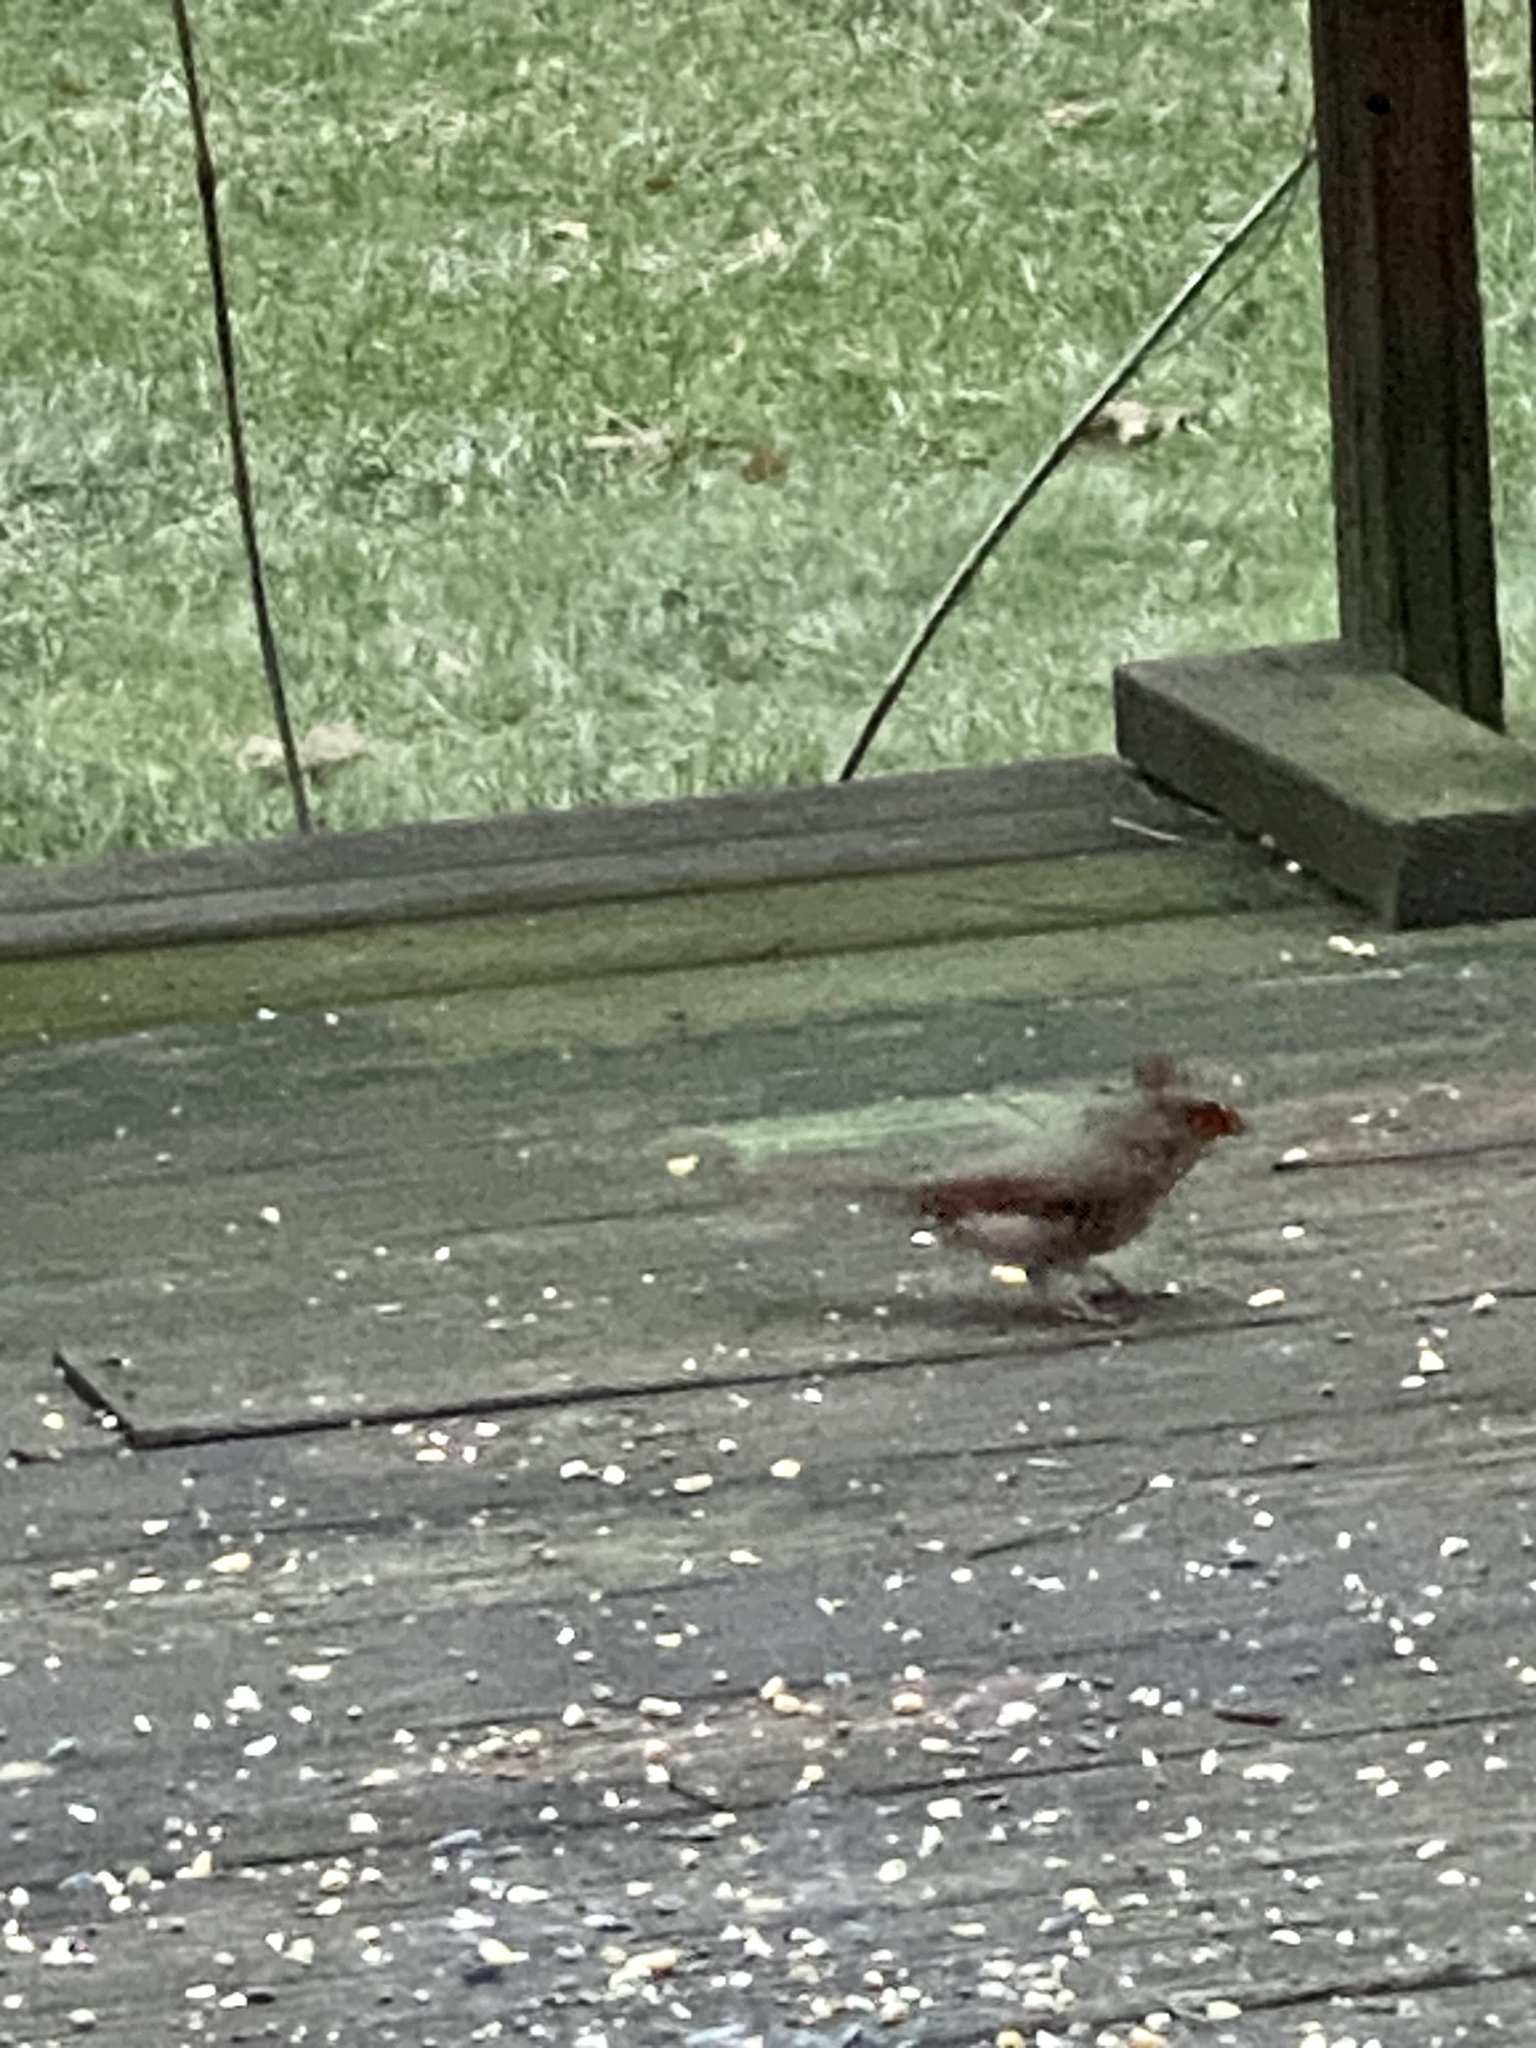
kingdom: Animalia
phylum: Chordata
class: Aves
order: Passeriformes
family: Cardinalidae
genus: Cardinalis
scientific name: Cardinalis cardinalis
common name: Northern cardinal
